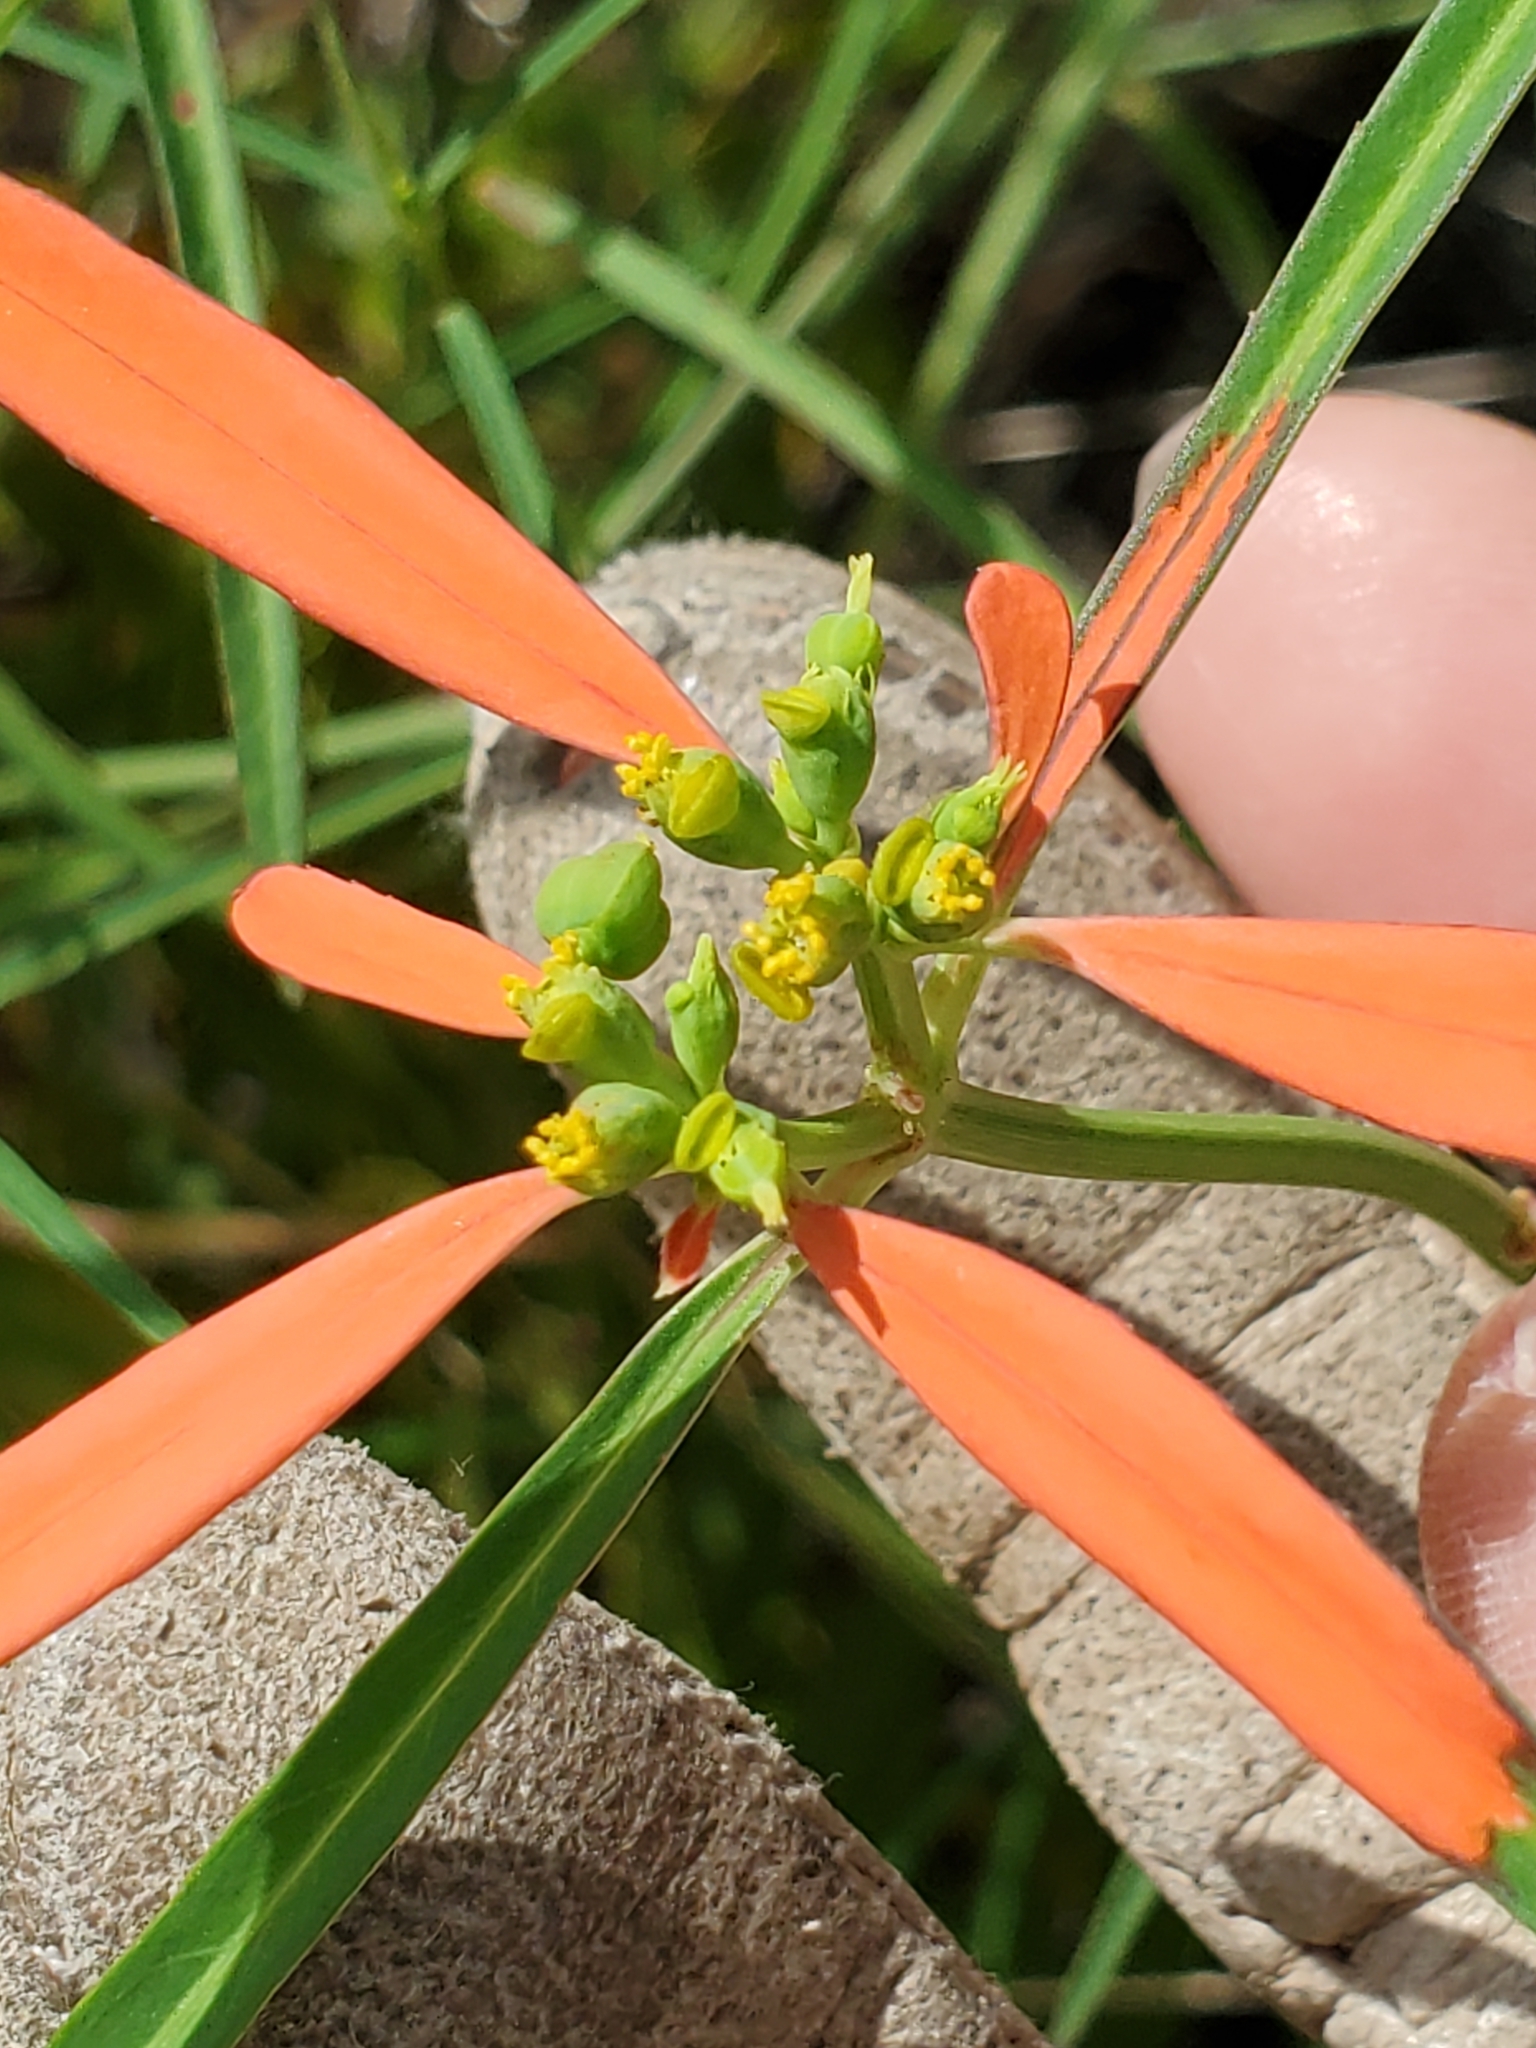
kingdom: Plantae
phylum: Tracheophyta
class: Magnoliopsida
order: Malpighiales
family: Euphorbiaceae
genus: Euphorbia
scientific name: Euphorbia heterophylla
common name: Mexican fireplant
